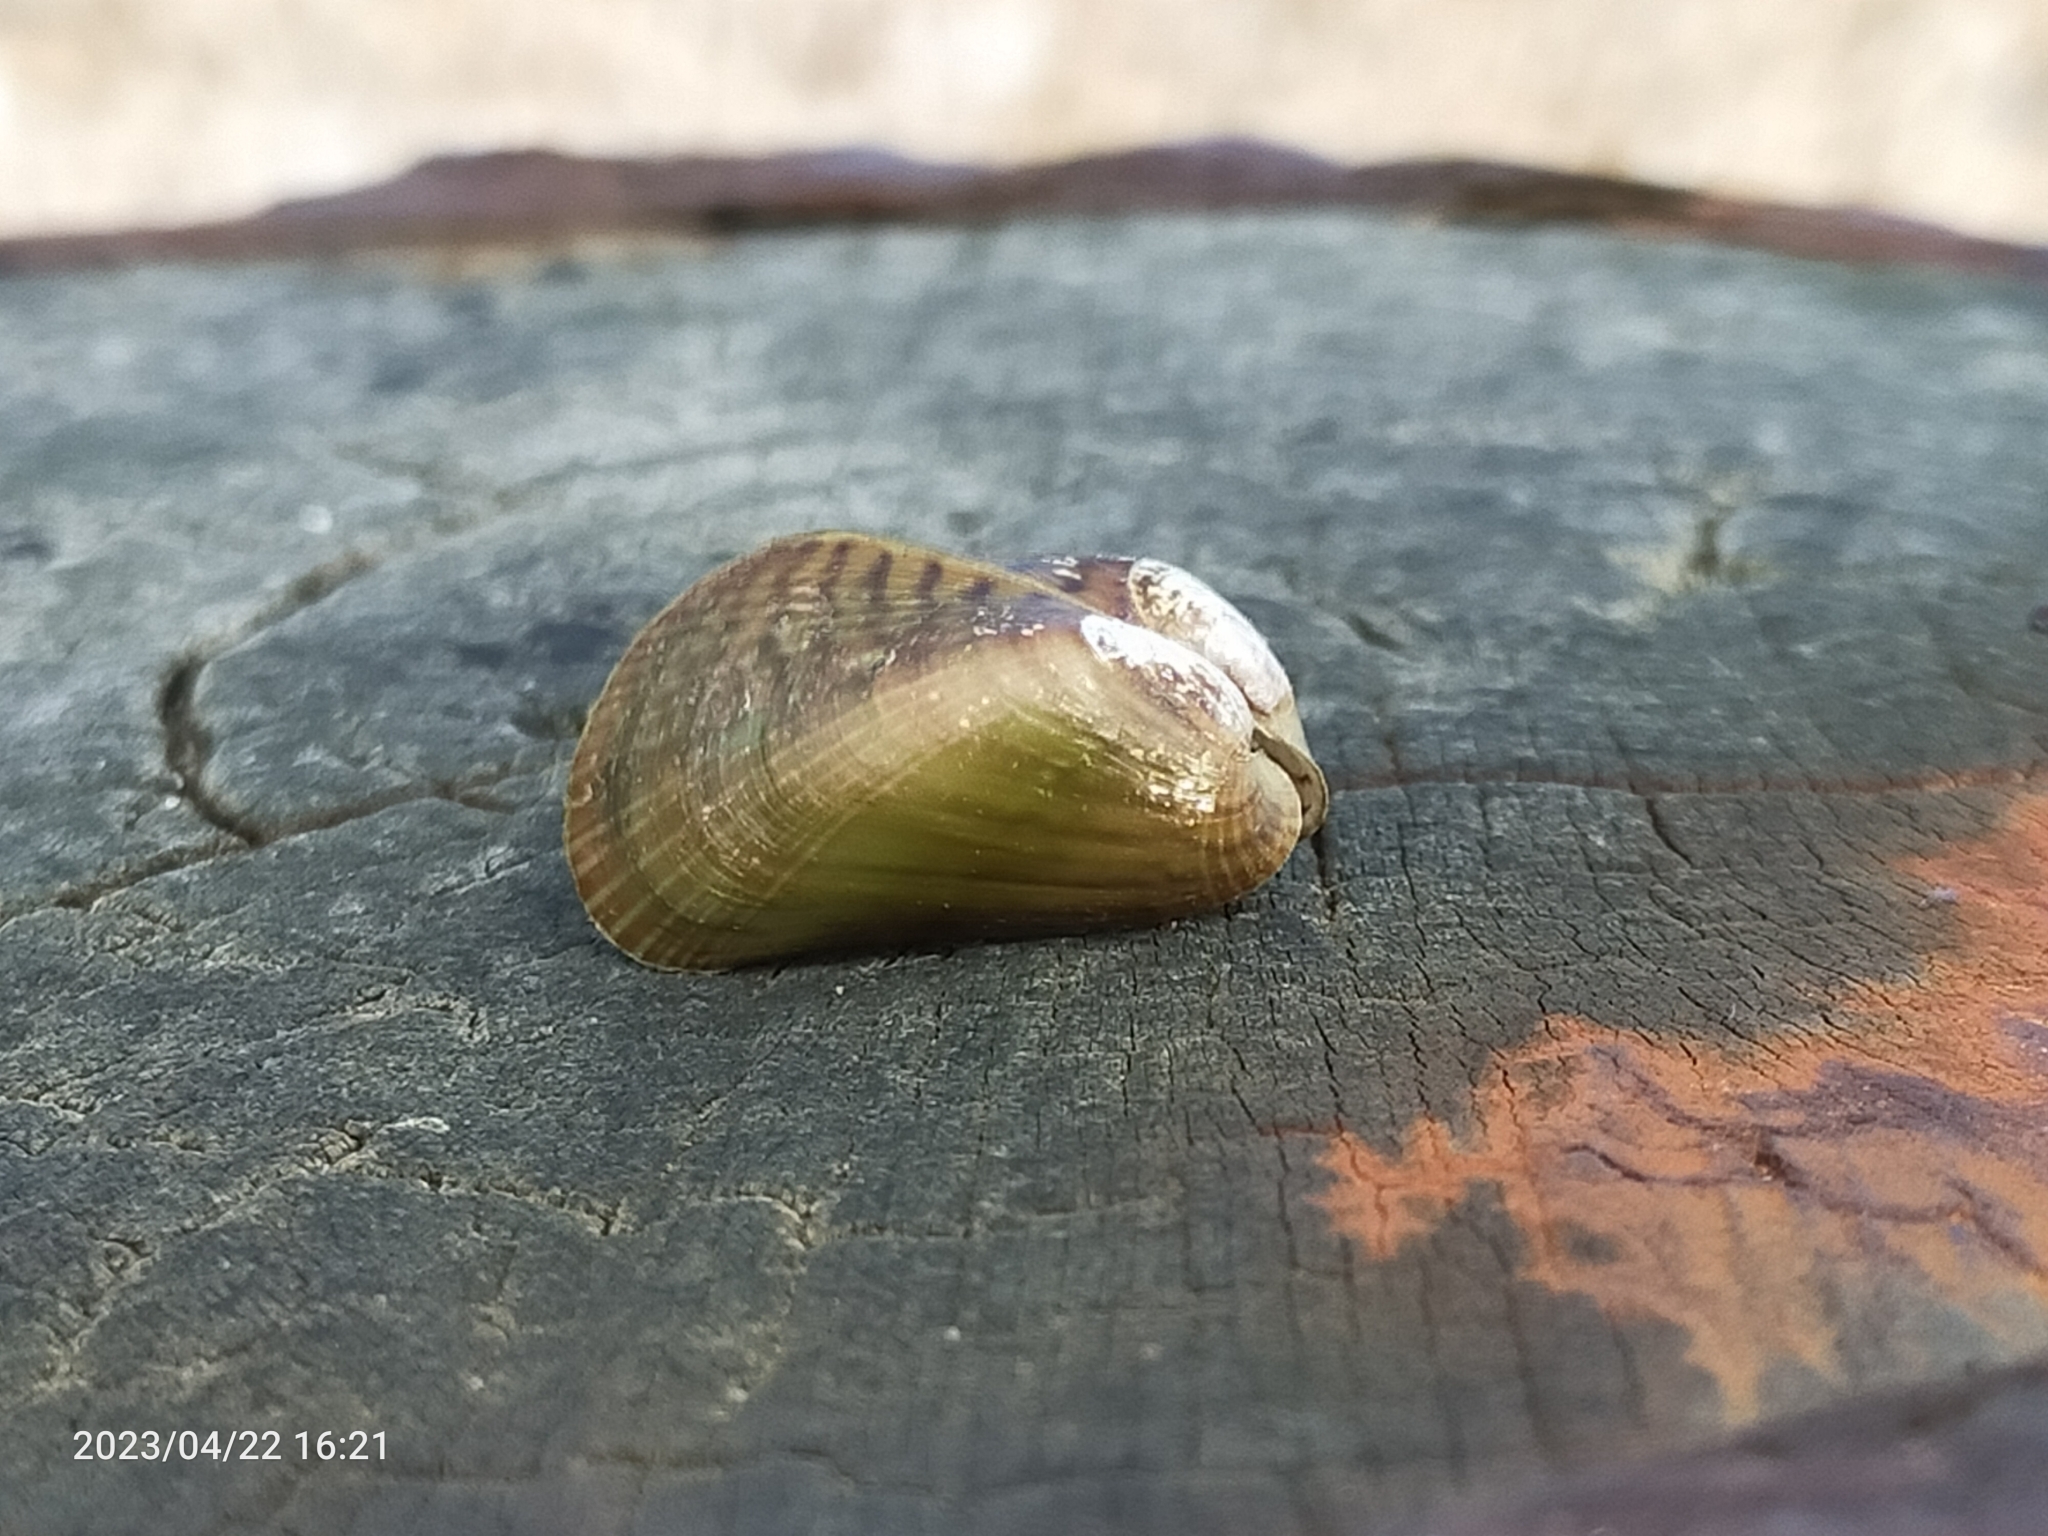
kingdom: Animalia
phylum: Mollusca
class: Bivalvia
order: Mytilida
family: Mytilidae
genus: Arcuatula
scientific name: Arcuatula senhousia
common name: Asian mussel
